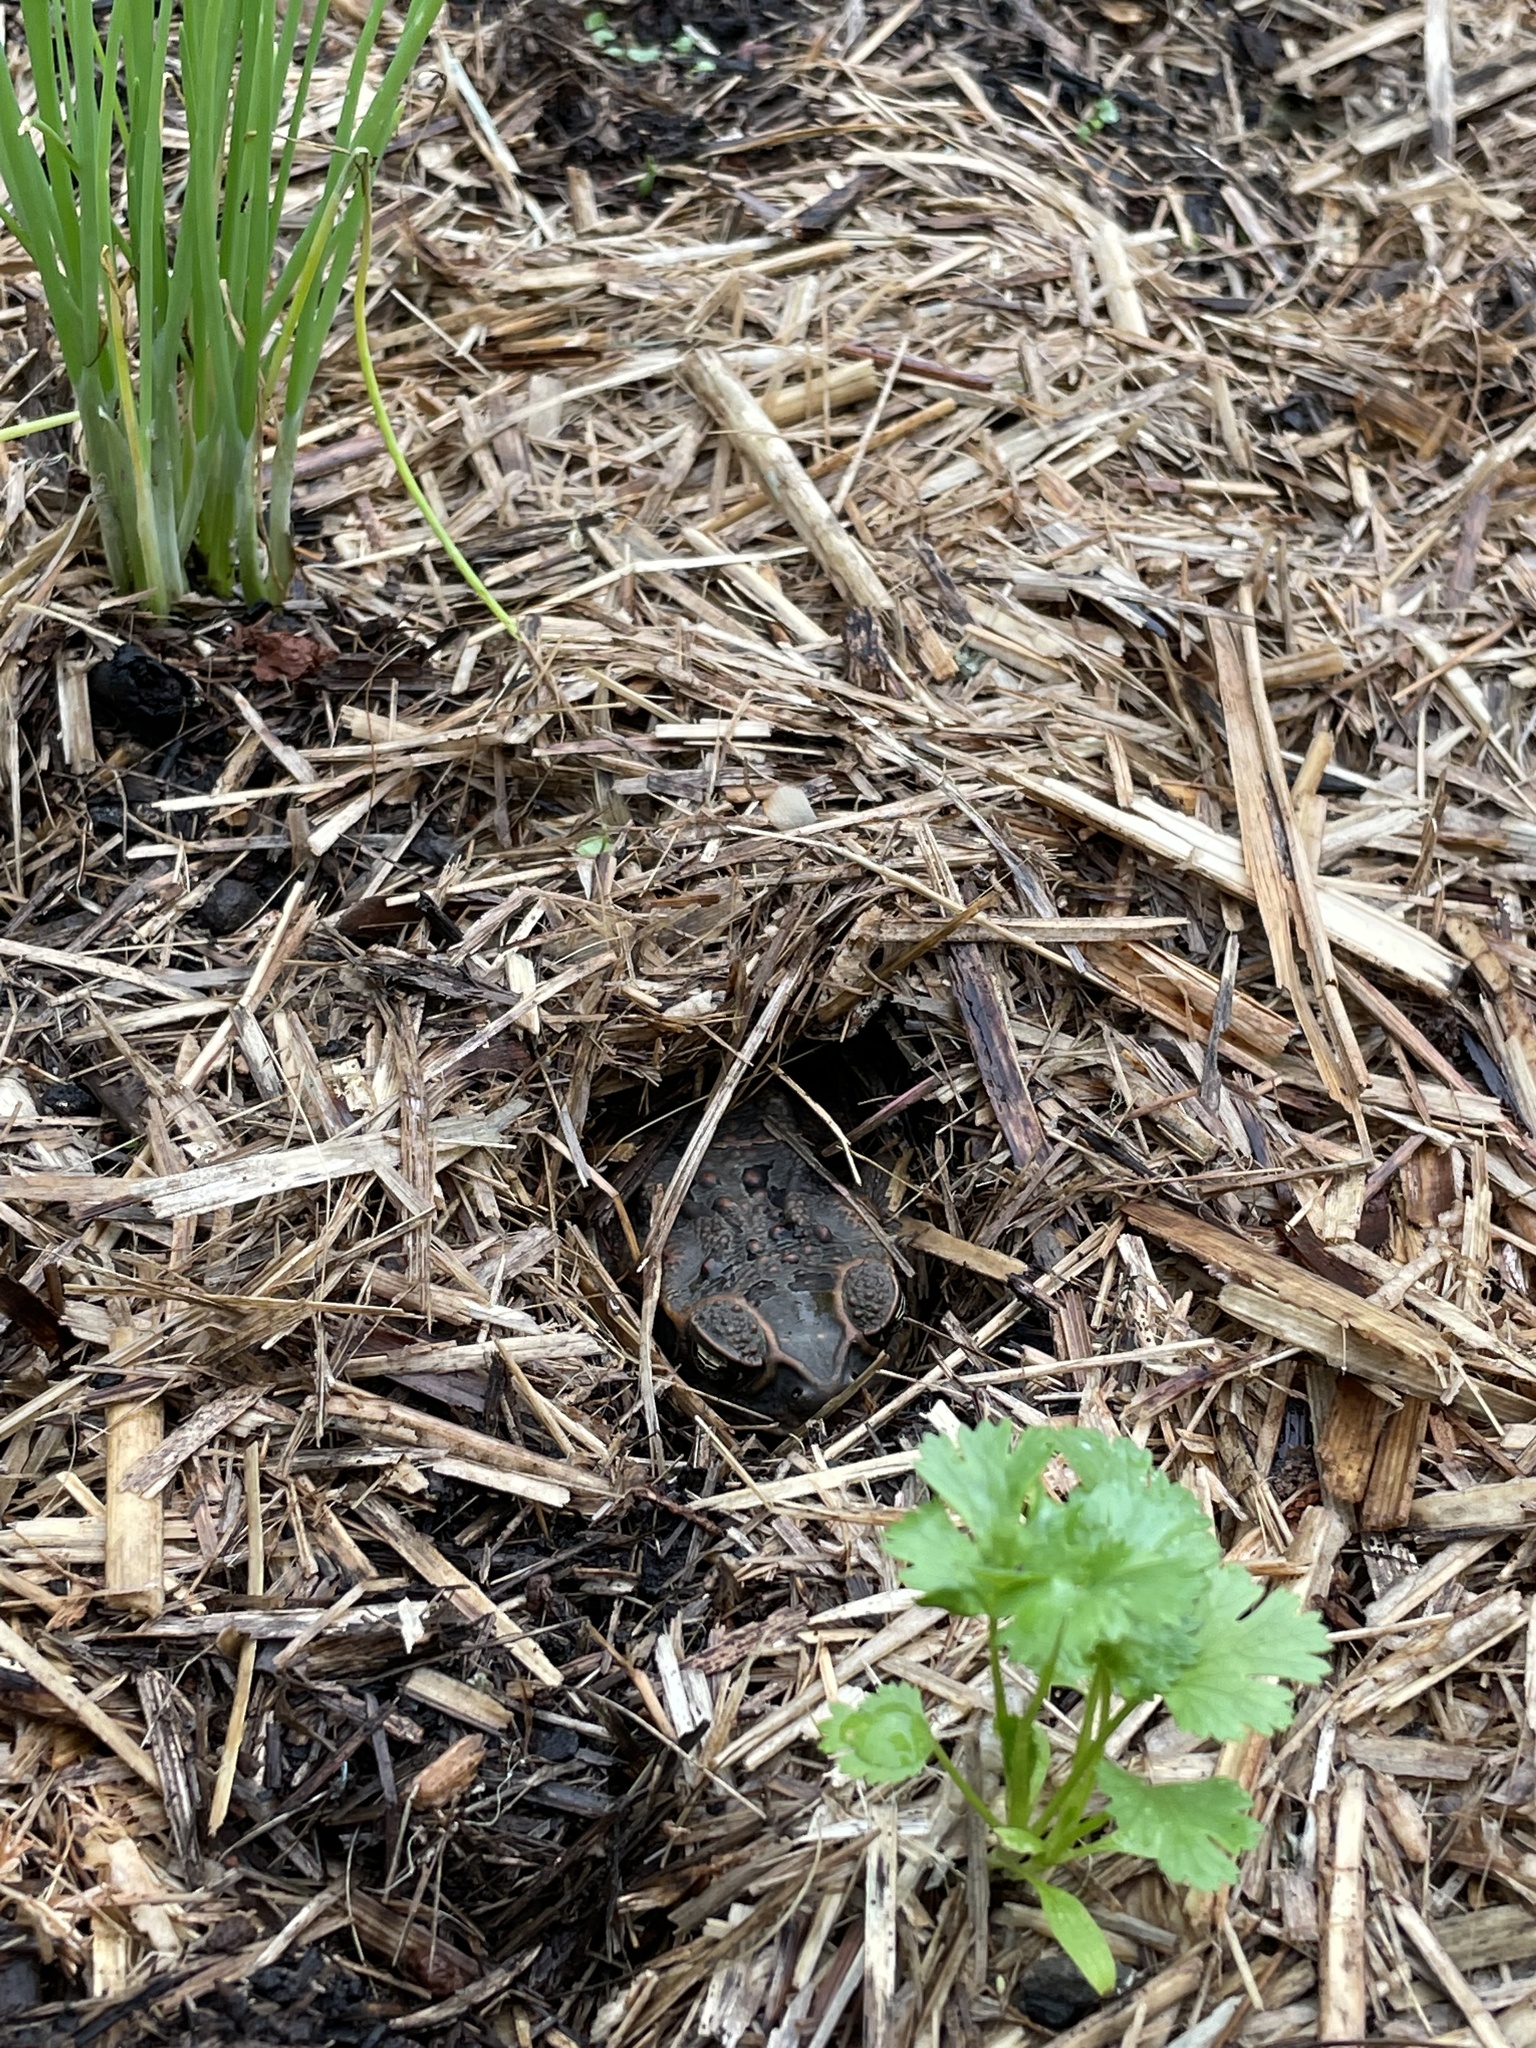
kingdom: Animalia
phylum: Chordata
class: Amphibia
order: Anura
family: Bufonidae
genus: Rhinella
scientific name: Rhinella marina
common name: Cane toad
